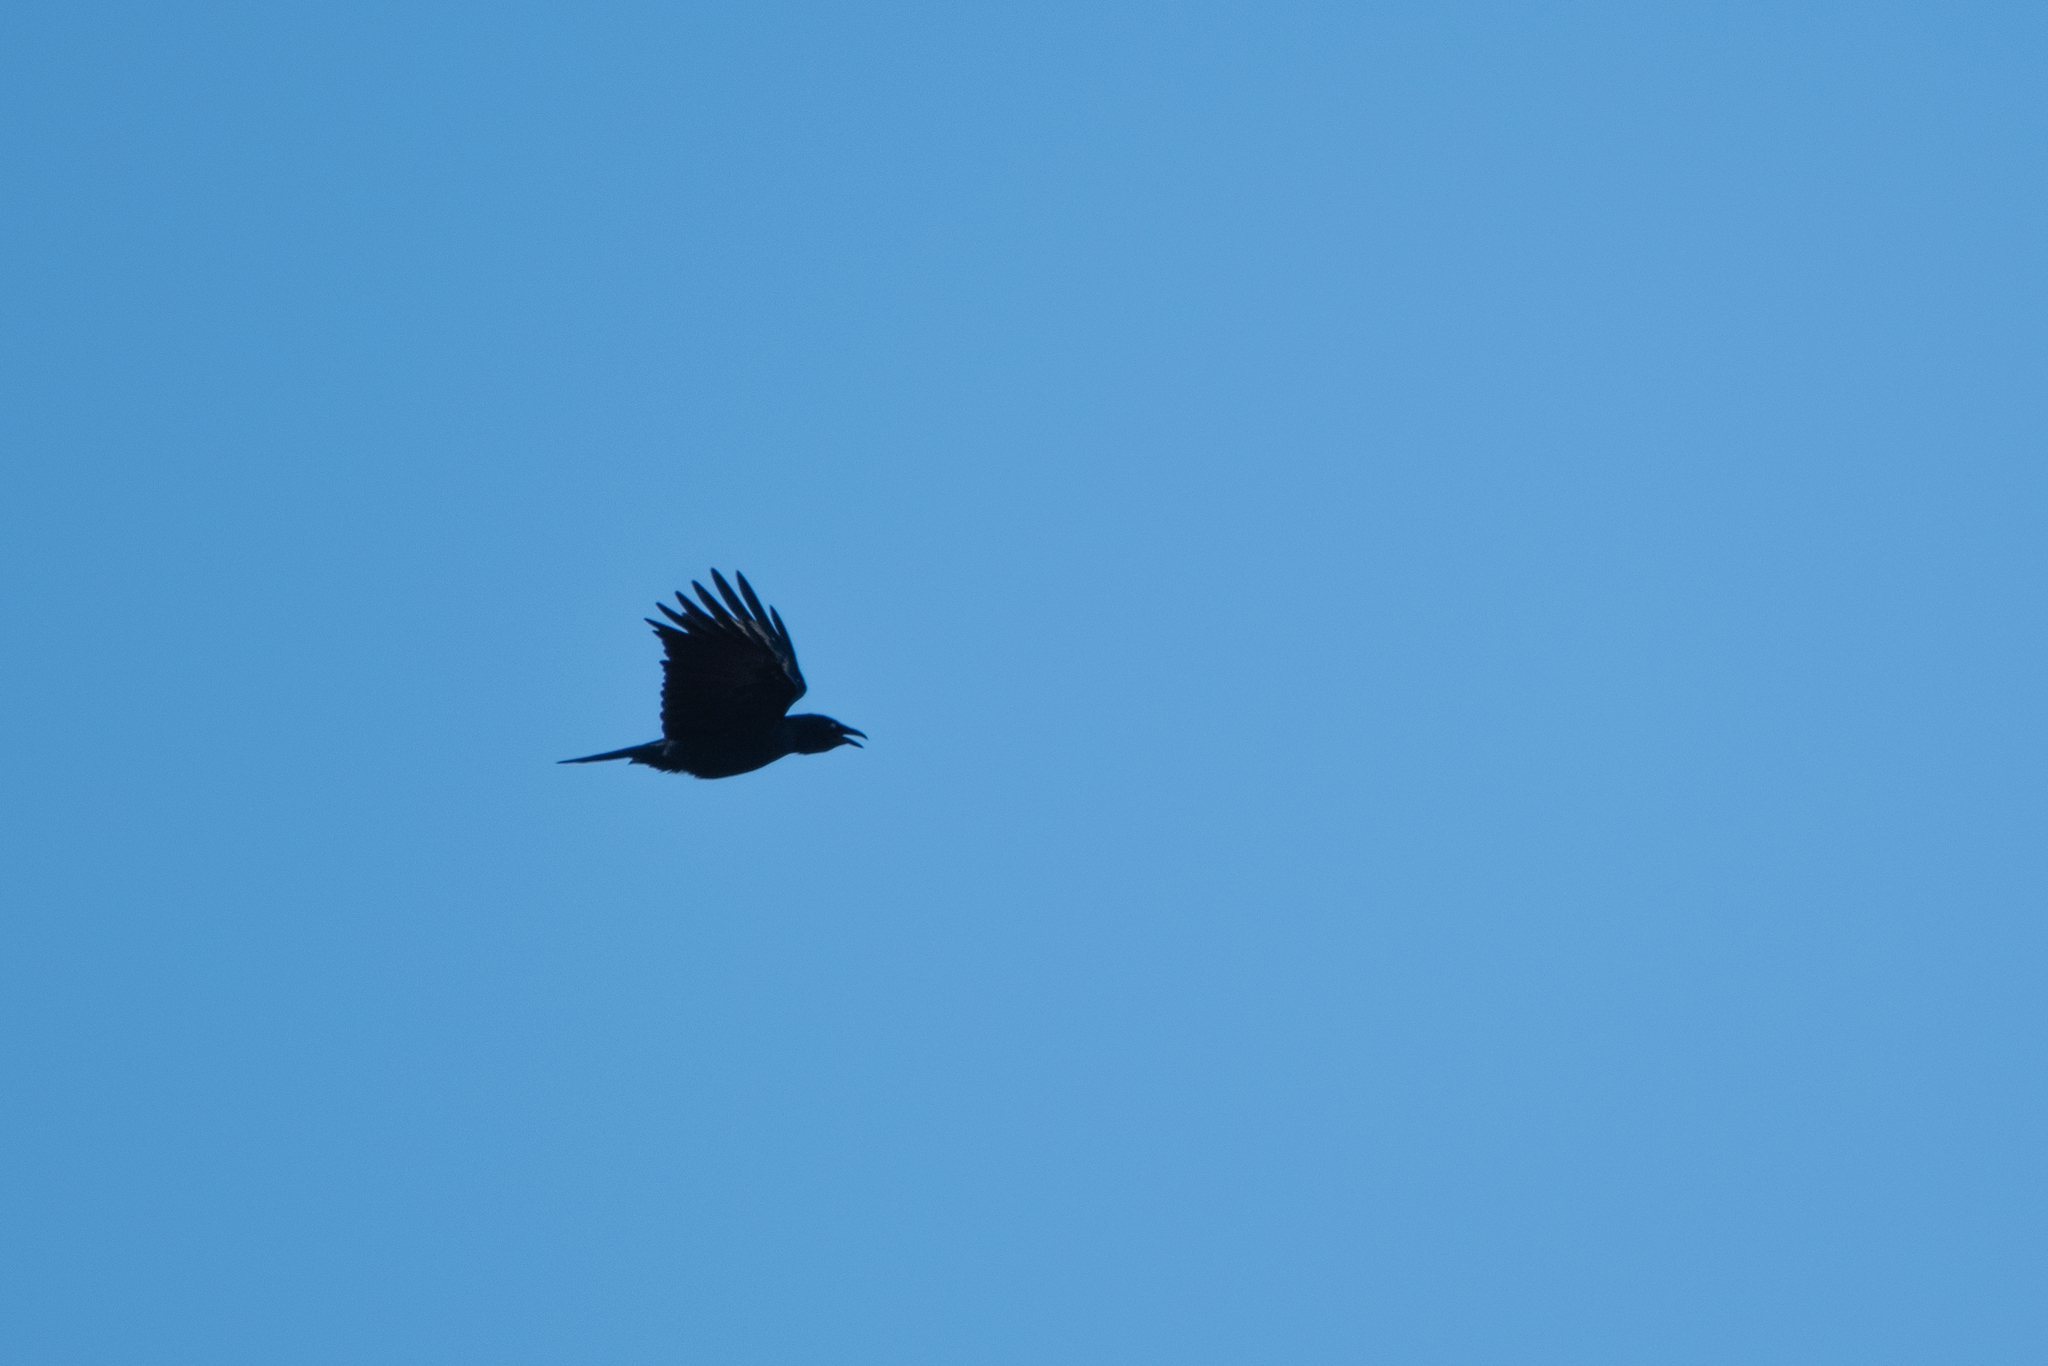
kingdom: Animalia
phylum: Chordata
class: Aves
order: Passeriformes
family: Corvidae
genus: Corvus
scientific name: Corvus ossifragus
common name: Fish crow
